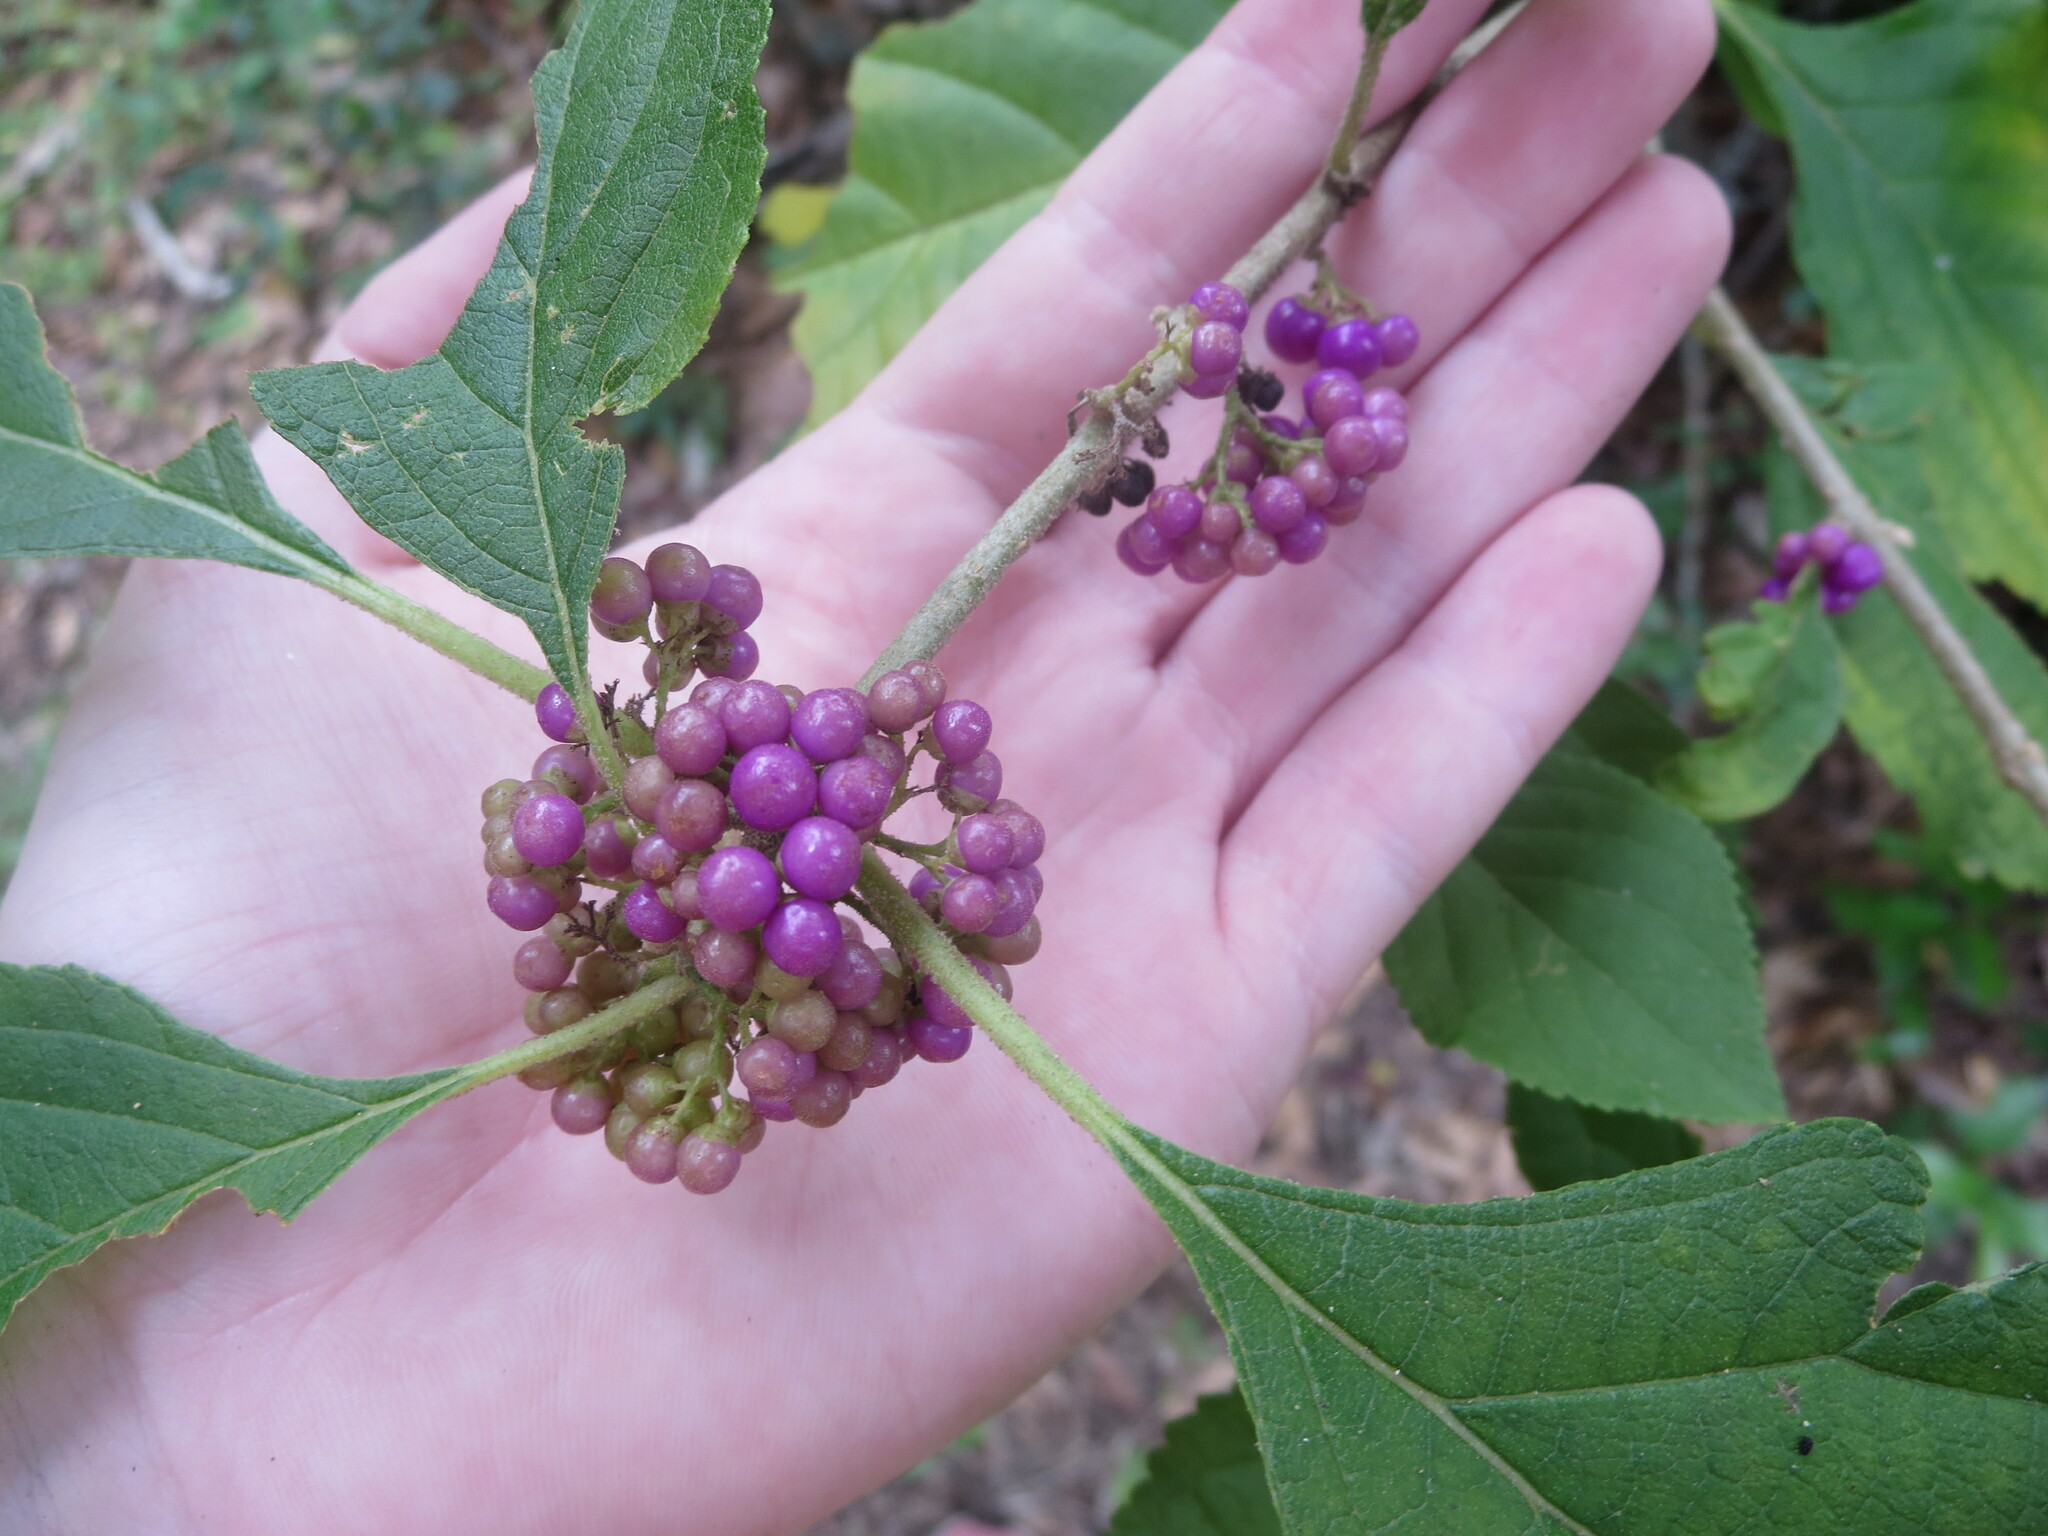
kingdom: Plantae
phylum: Tracheophyta
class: Magnoliopsida
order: Lamiales
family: Lamiaceae
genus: Callicarpa
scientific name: Callicarpa americana
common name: American beautyberry
